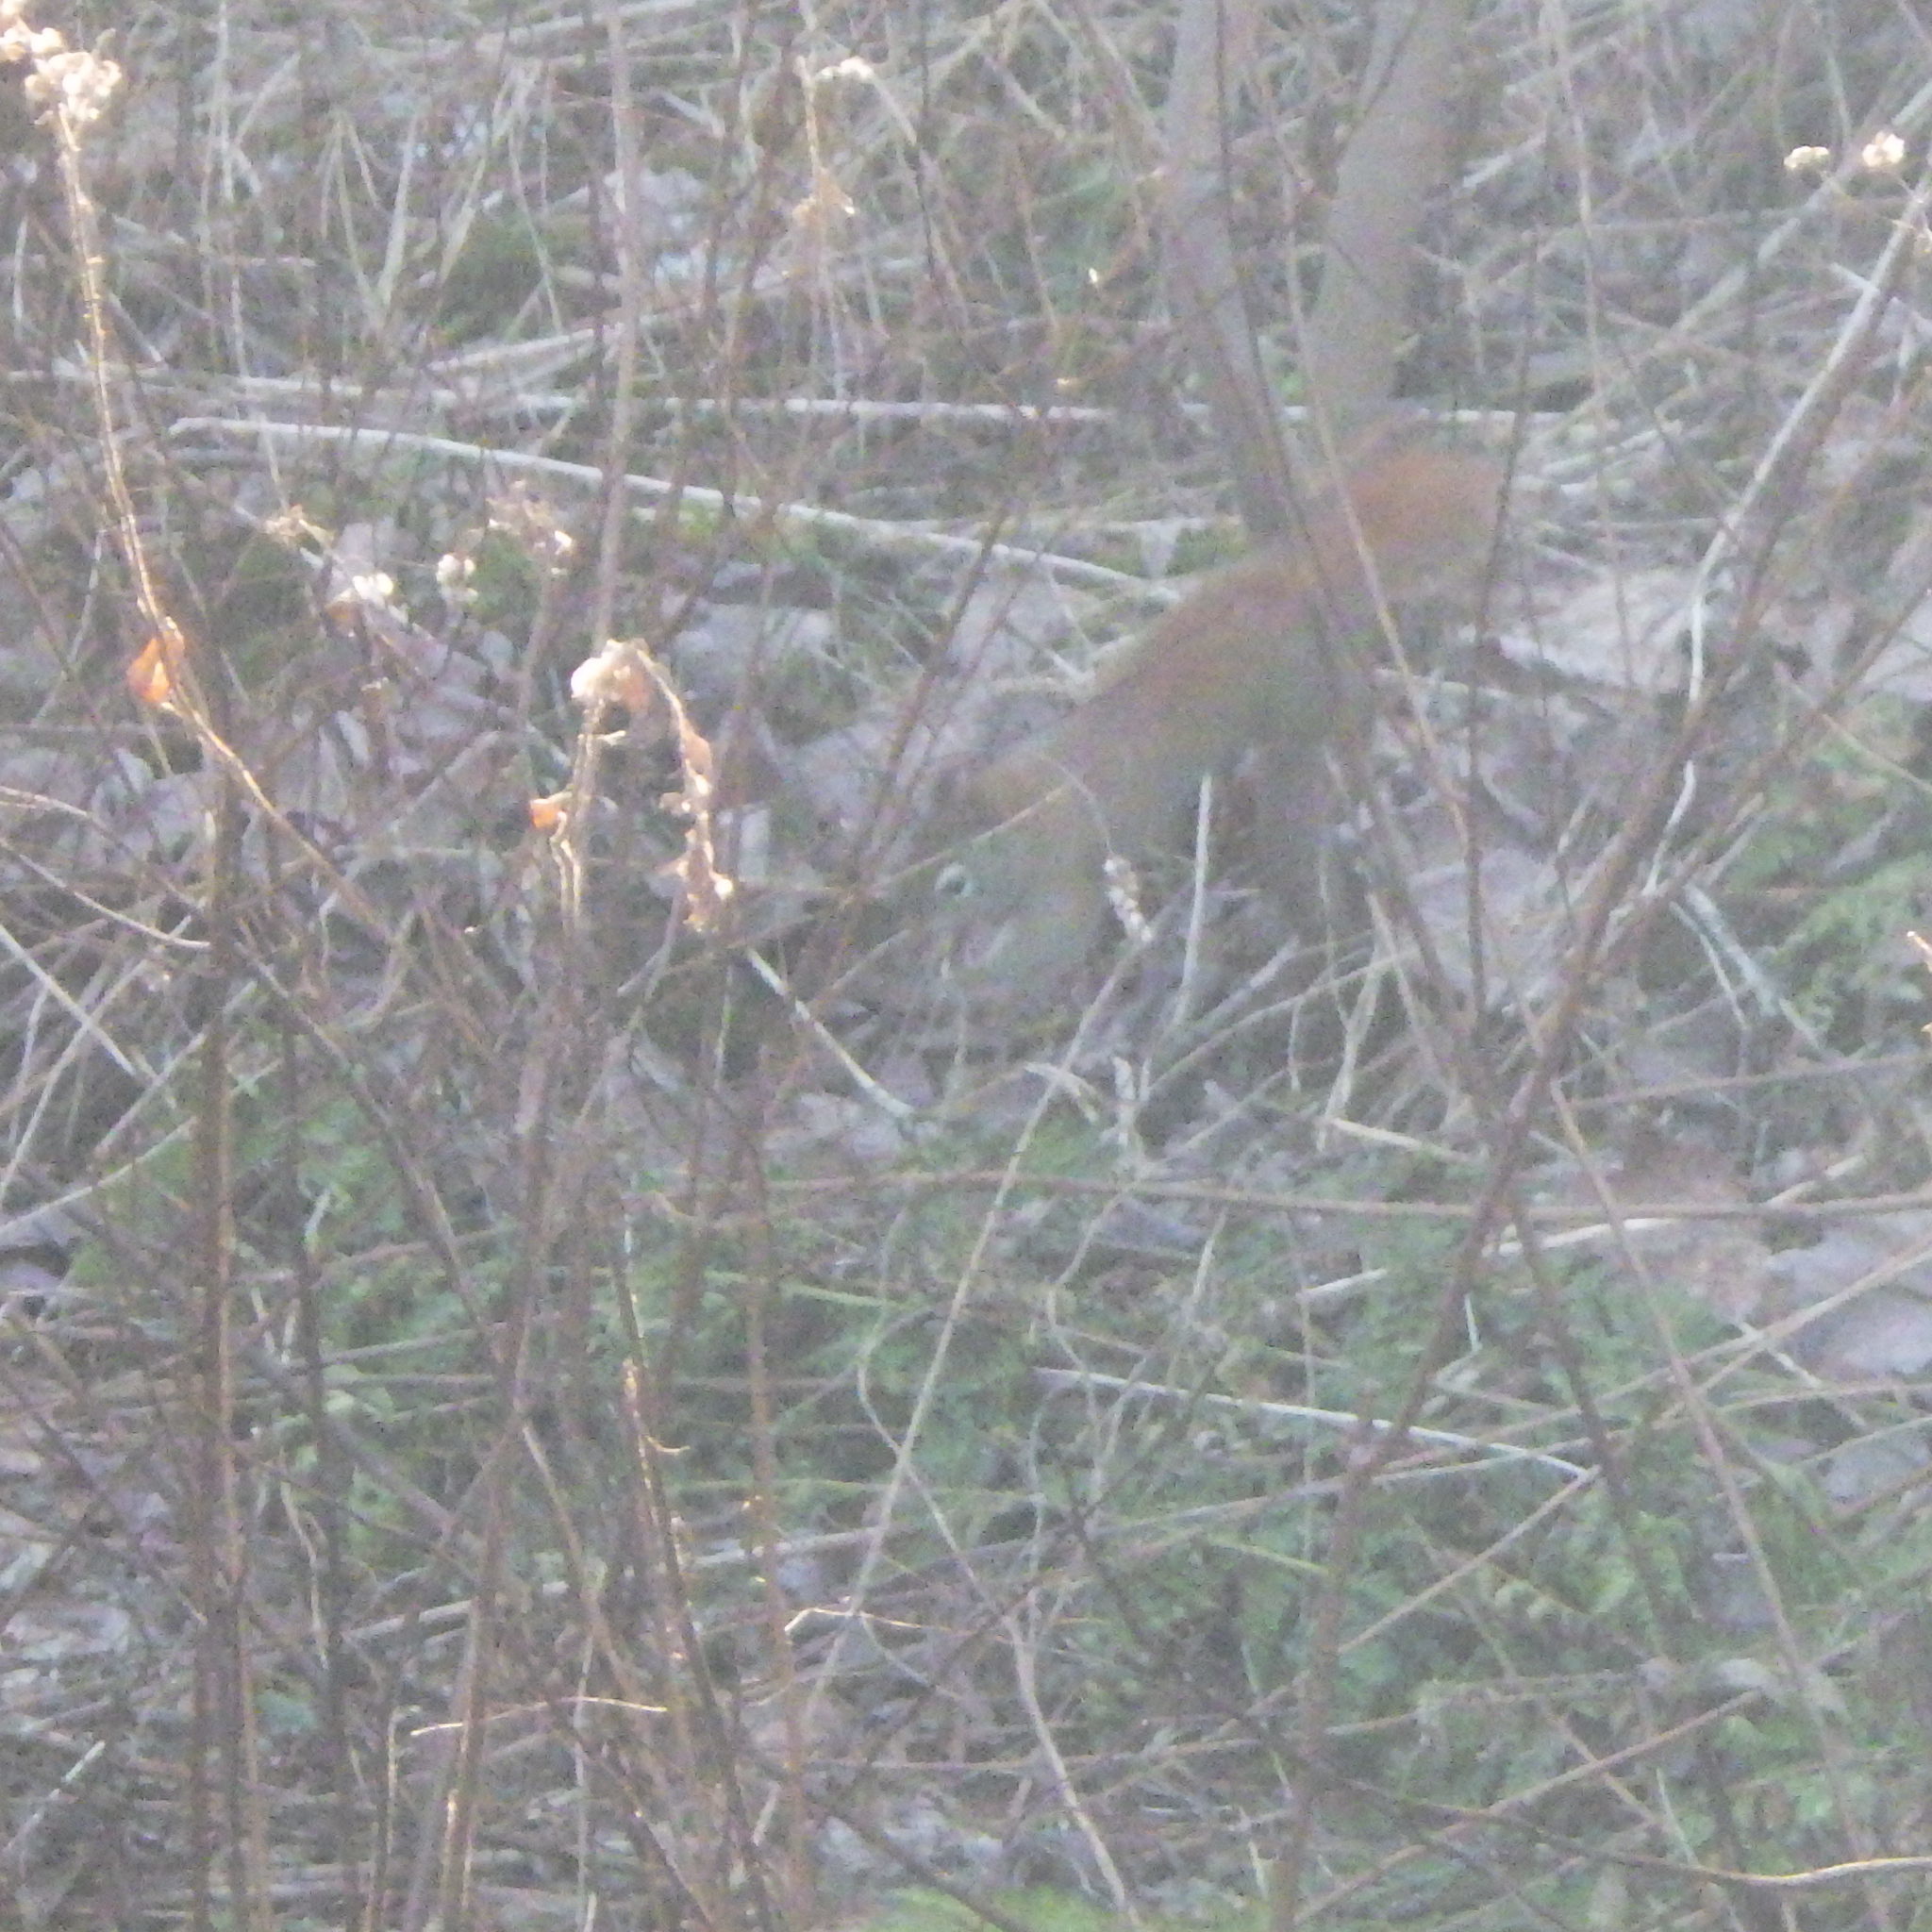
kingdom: Animalia
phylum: Chordata
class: Mammalia
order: Rodentia
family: Sciuridae
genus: Tamiasciurus
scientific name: Tamiasciurus hudsonicus
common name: Red squirrel
